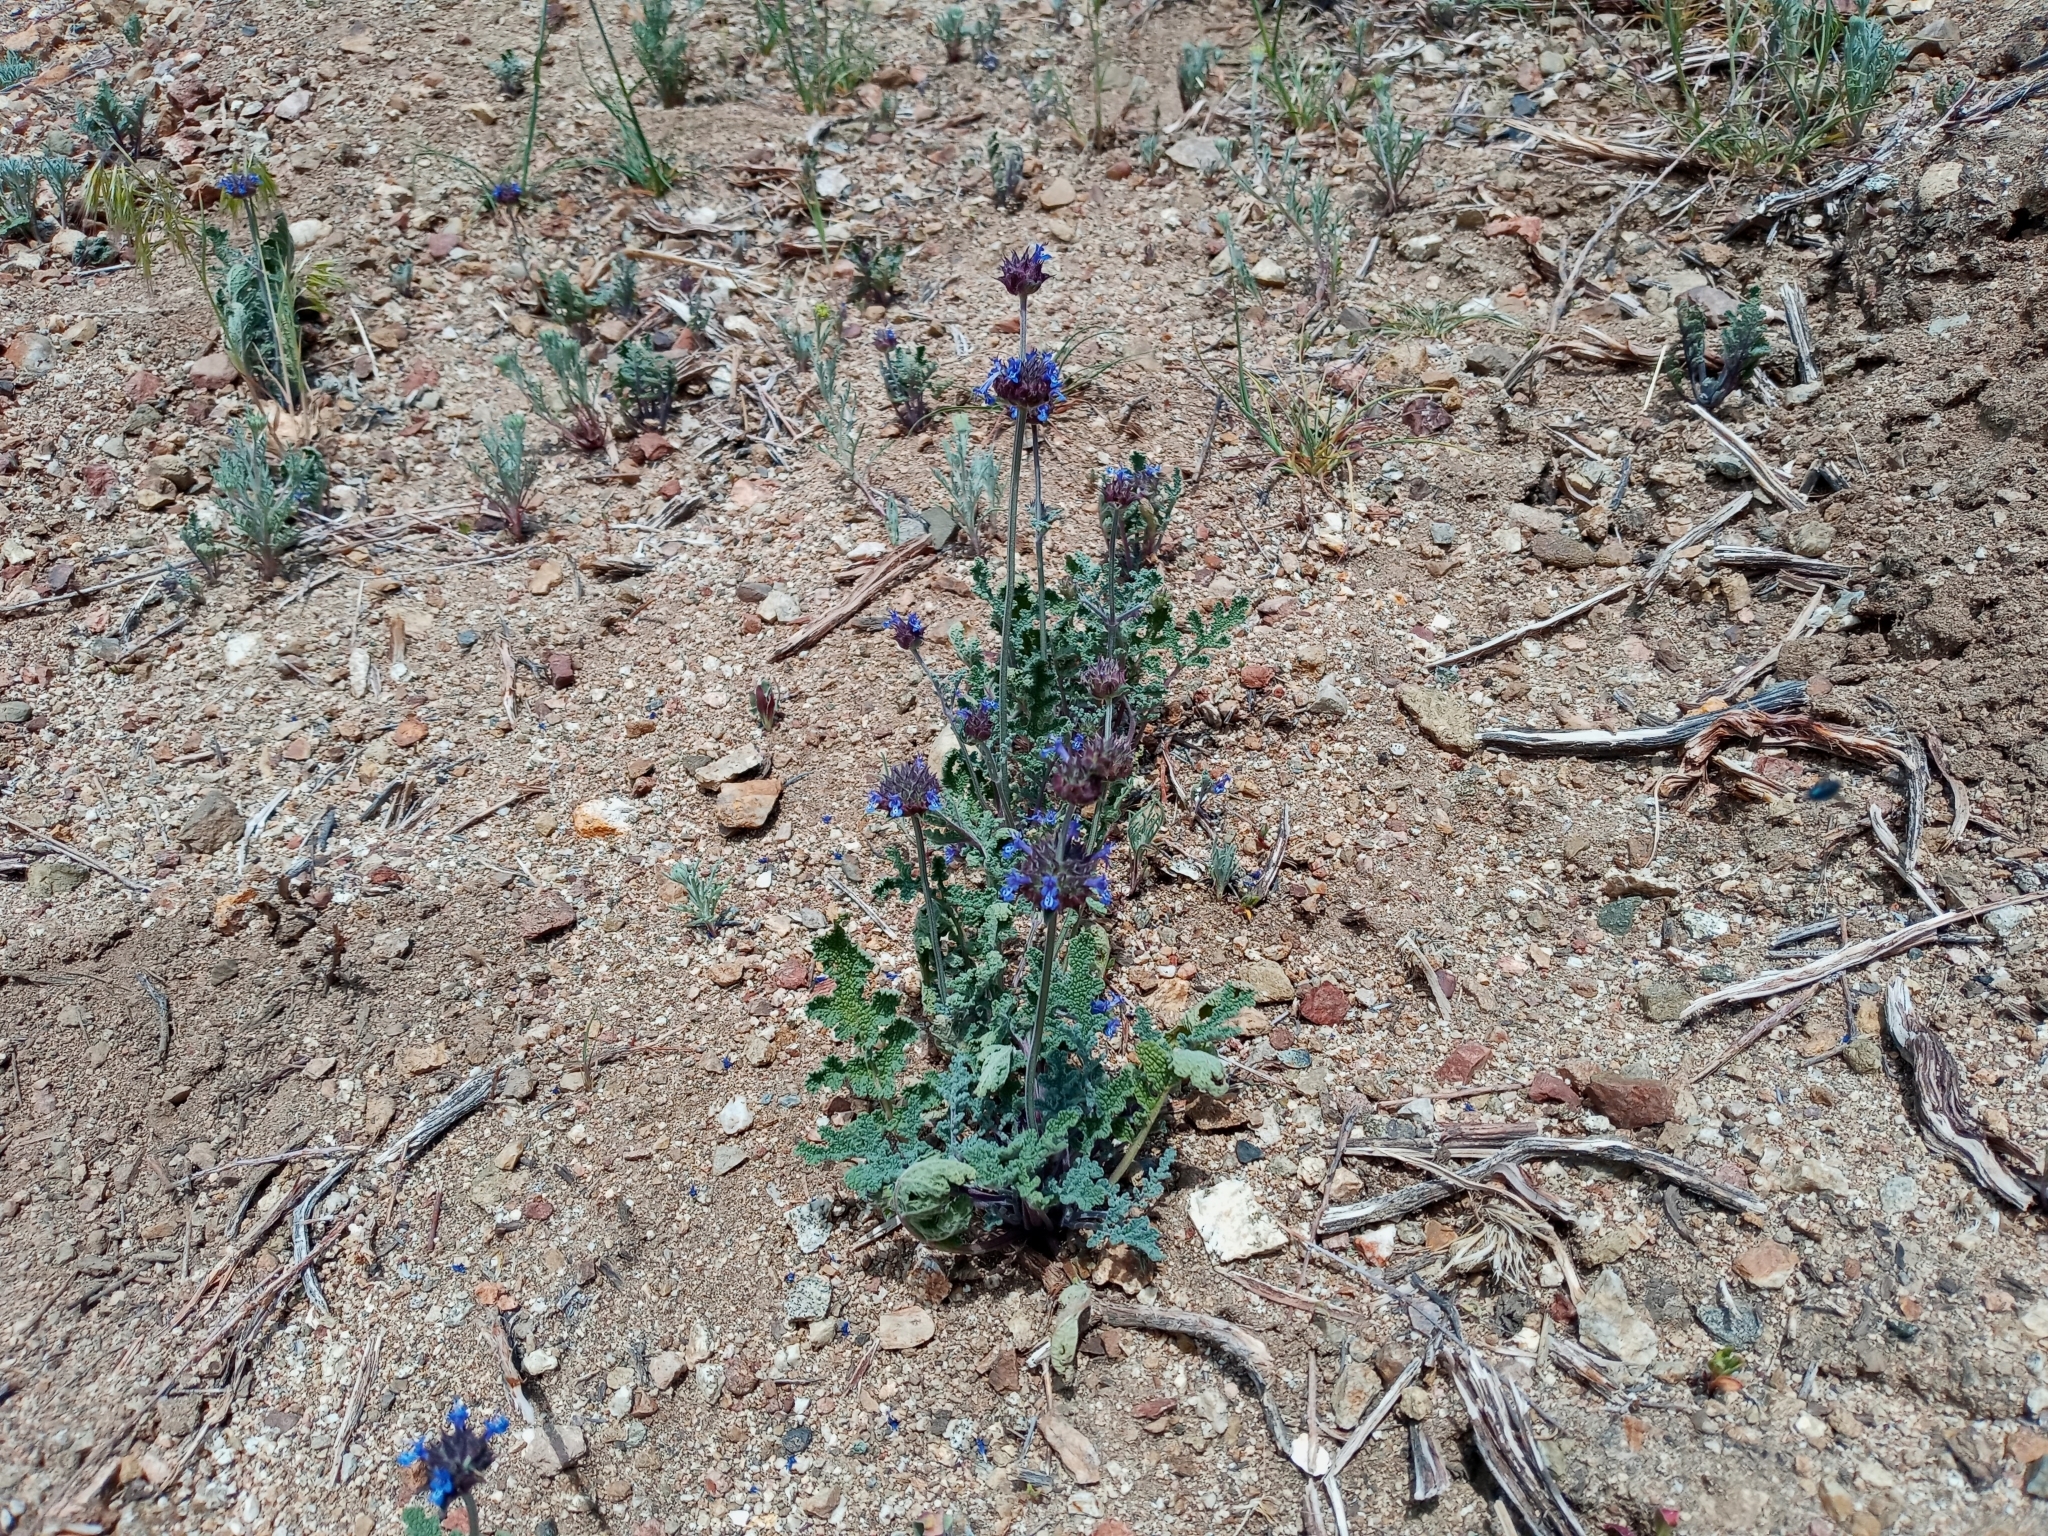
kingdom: Plantae
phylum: Tracheophyta
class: Magnoliopsida
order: Lamiales
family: Lamiaceae
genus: Salvia
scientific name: Salvia columbariae
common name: Chia
